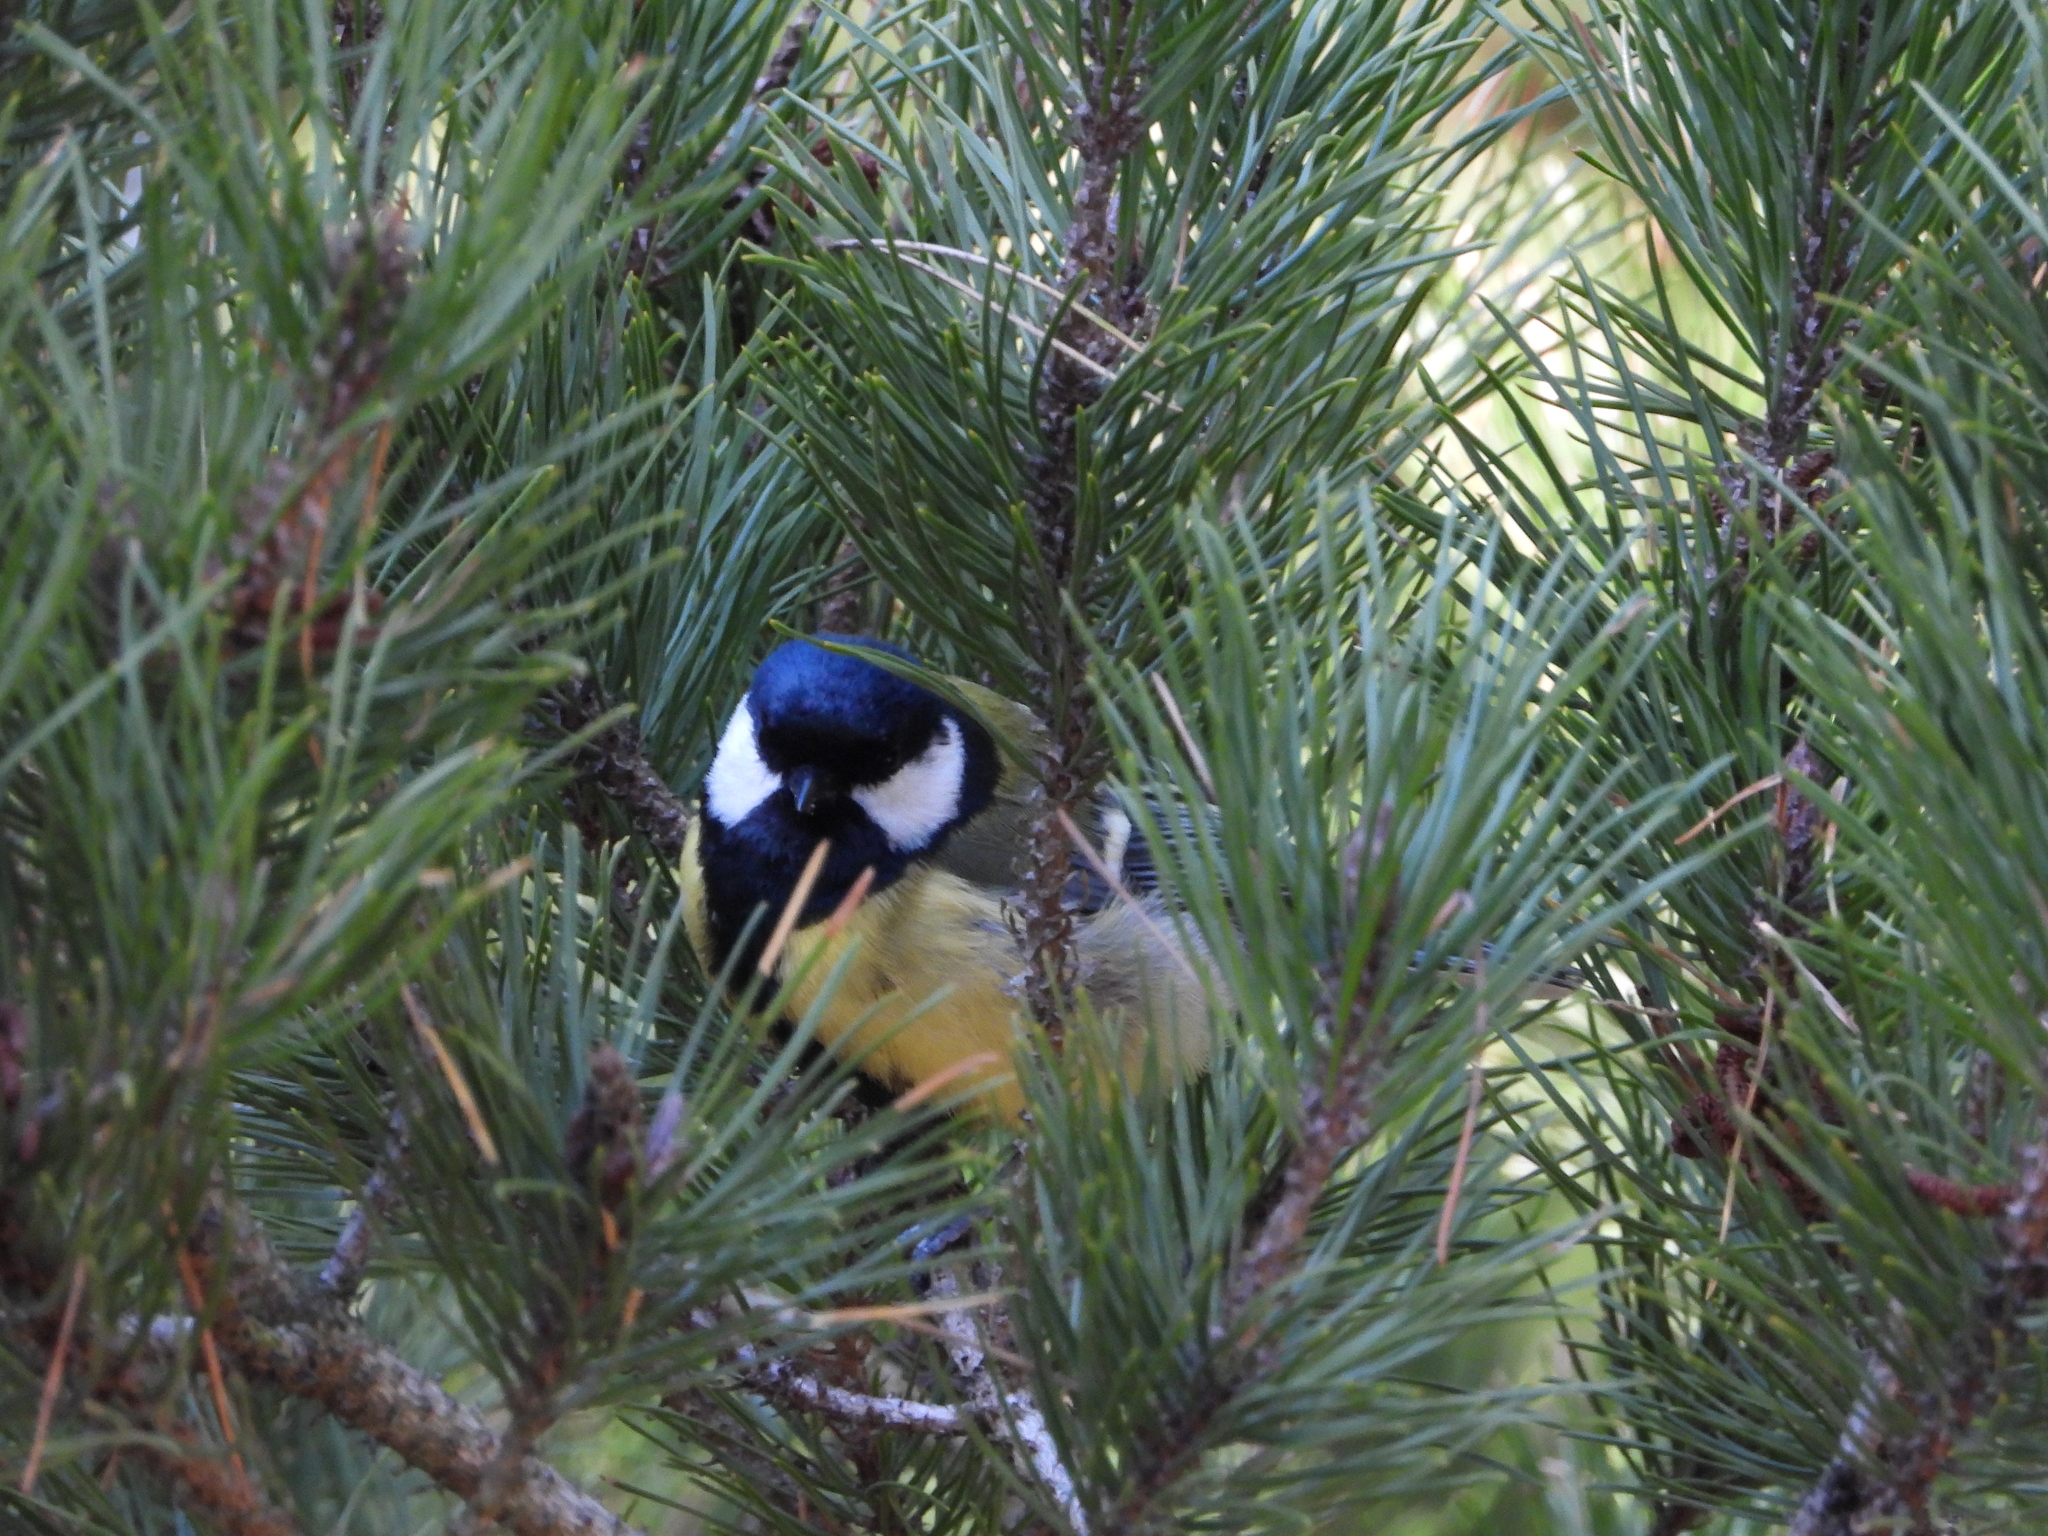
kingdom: Animalia
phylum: Chordata
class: Aves
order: Passeriformes
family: Paridae
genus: Parus
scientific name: Parus major
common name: Great tit
